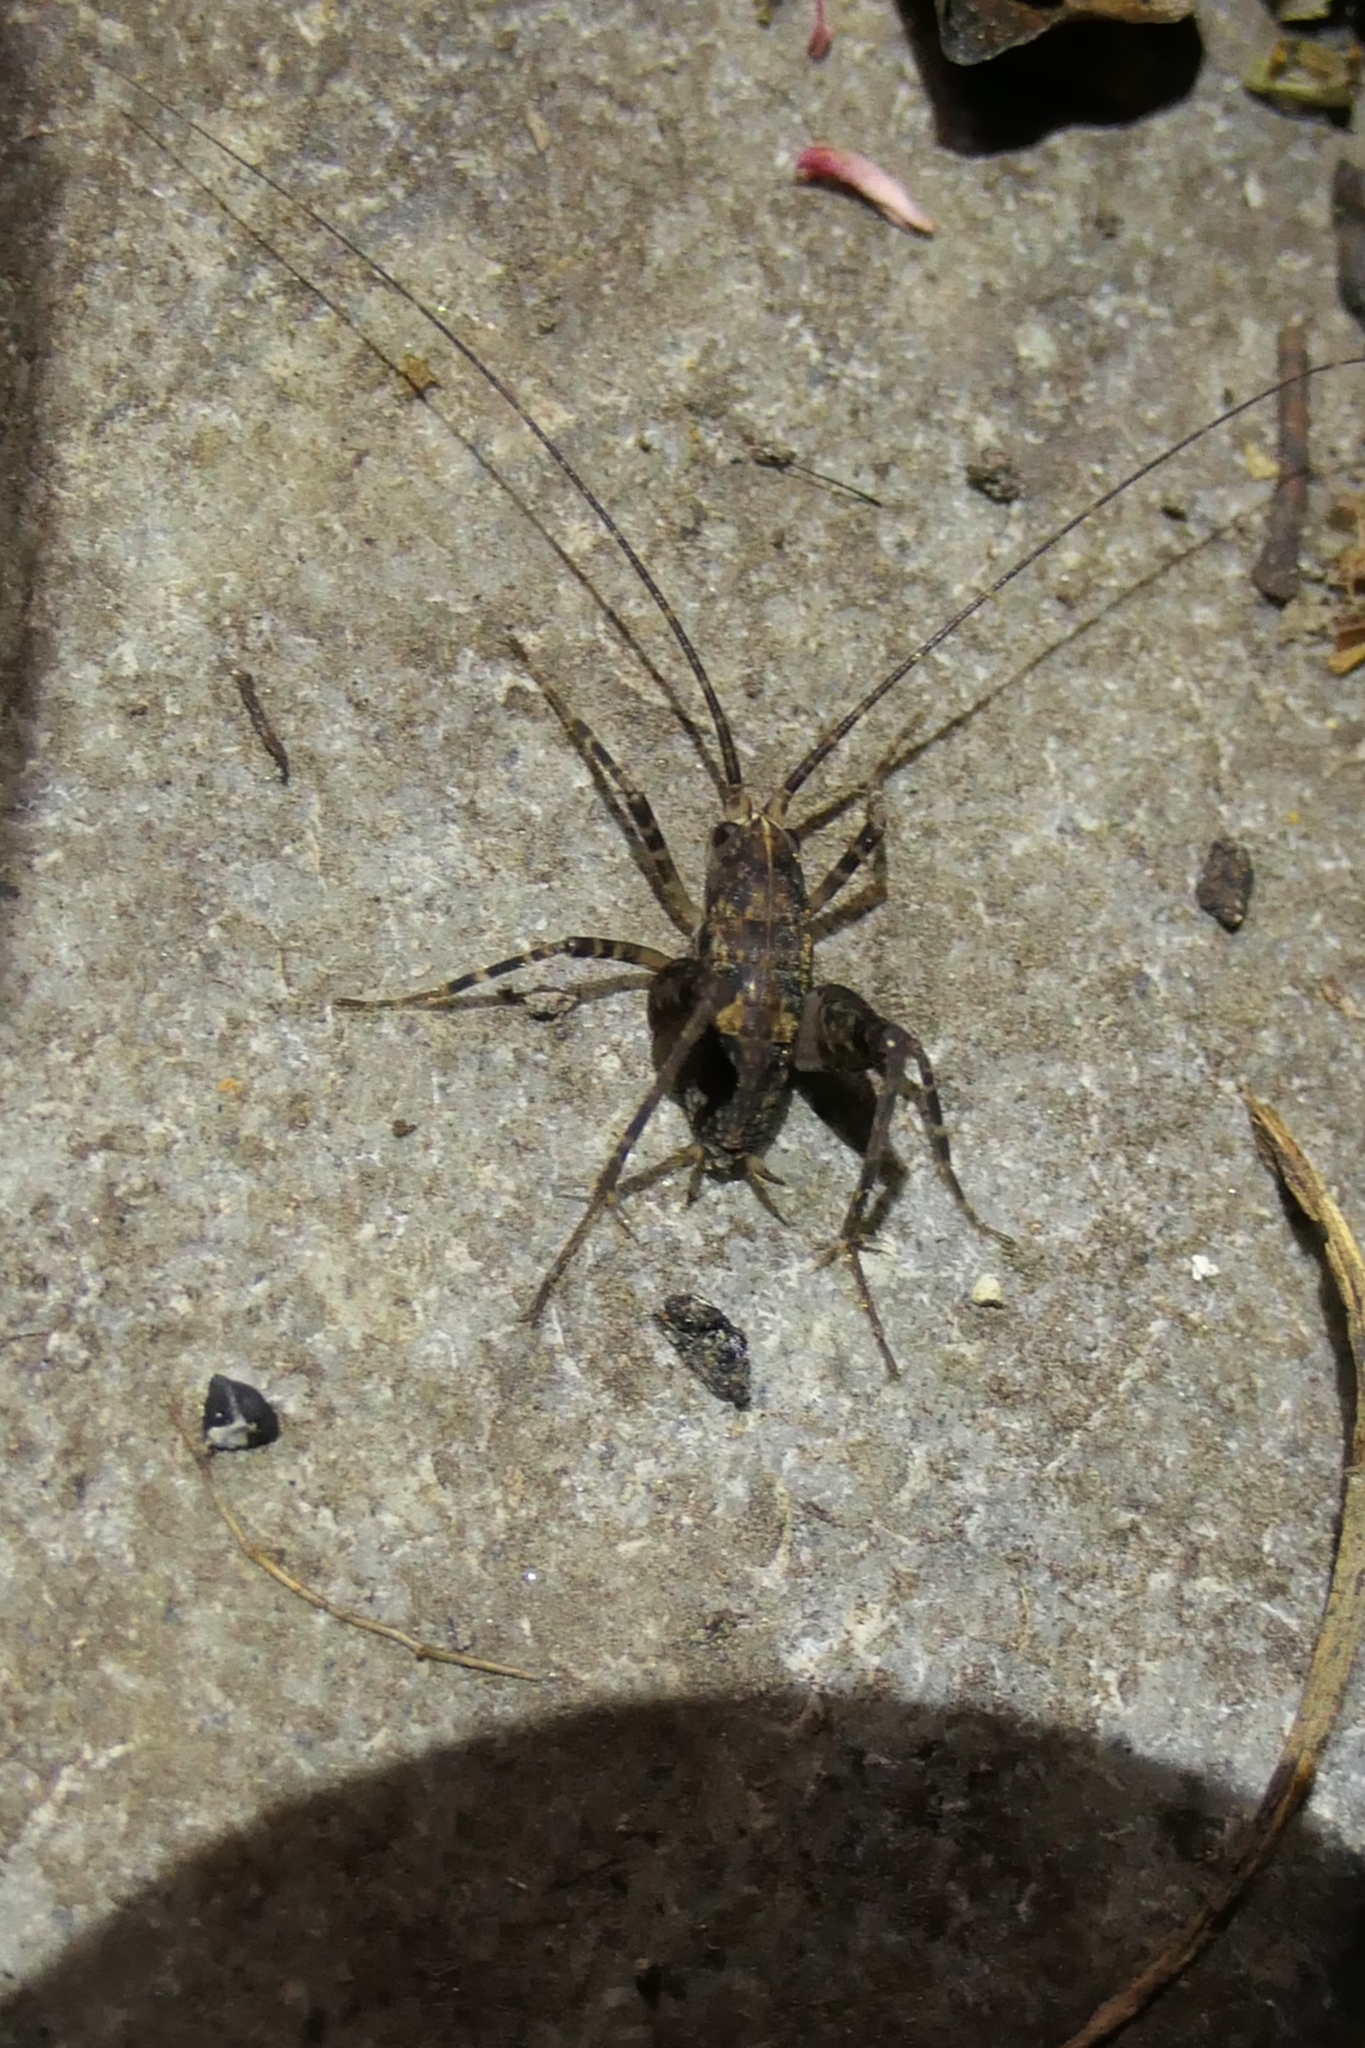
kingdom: Animalia
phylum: Arthropoda
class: Insecta
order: Orthoptera
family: Rhaphidophoridae
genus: Pleioplectron
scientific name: Pleioplectron simplex
